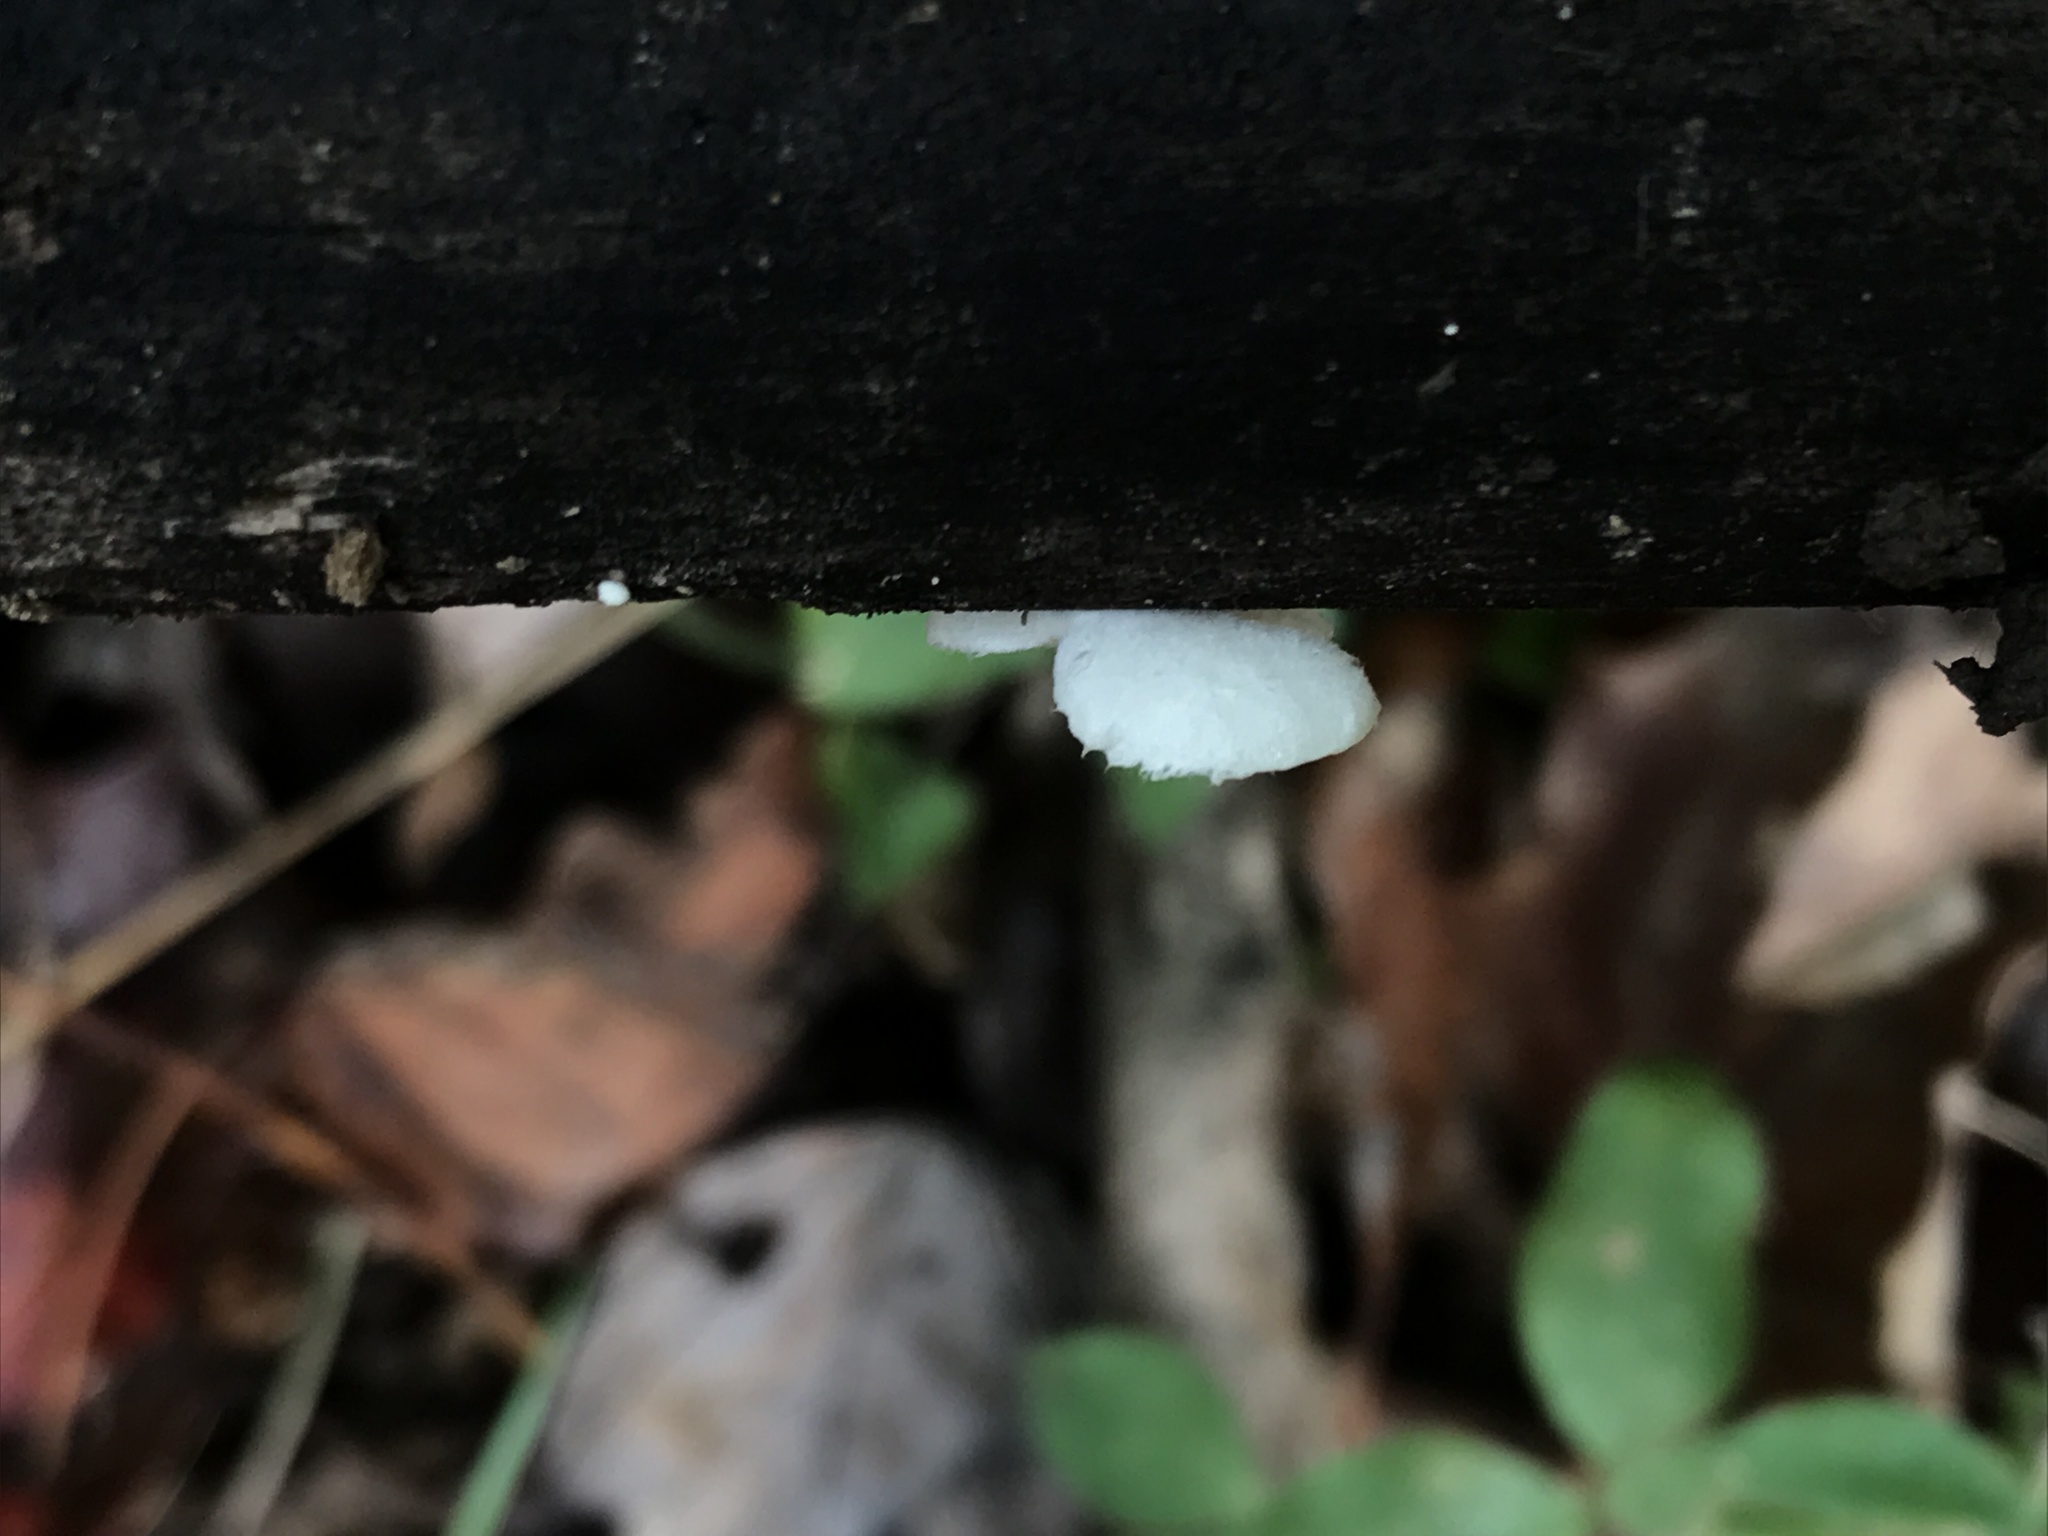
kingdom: Fungi
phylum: Basidiomycota
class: Agaricomycetes
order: Agaricales
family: Crepidotaceae
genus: Crepidotus
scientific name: Crepidotus albissimus
